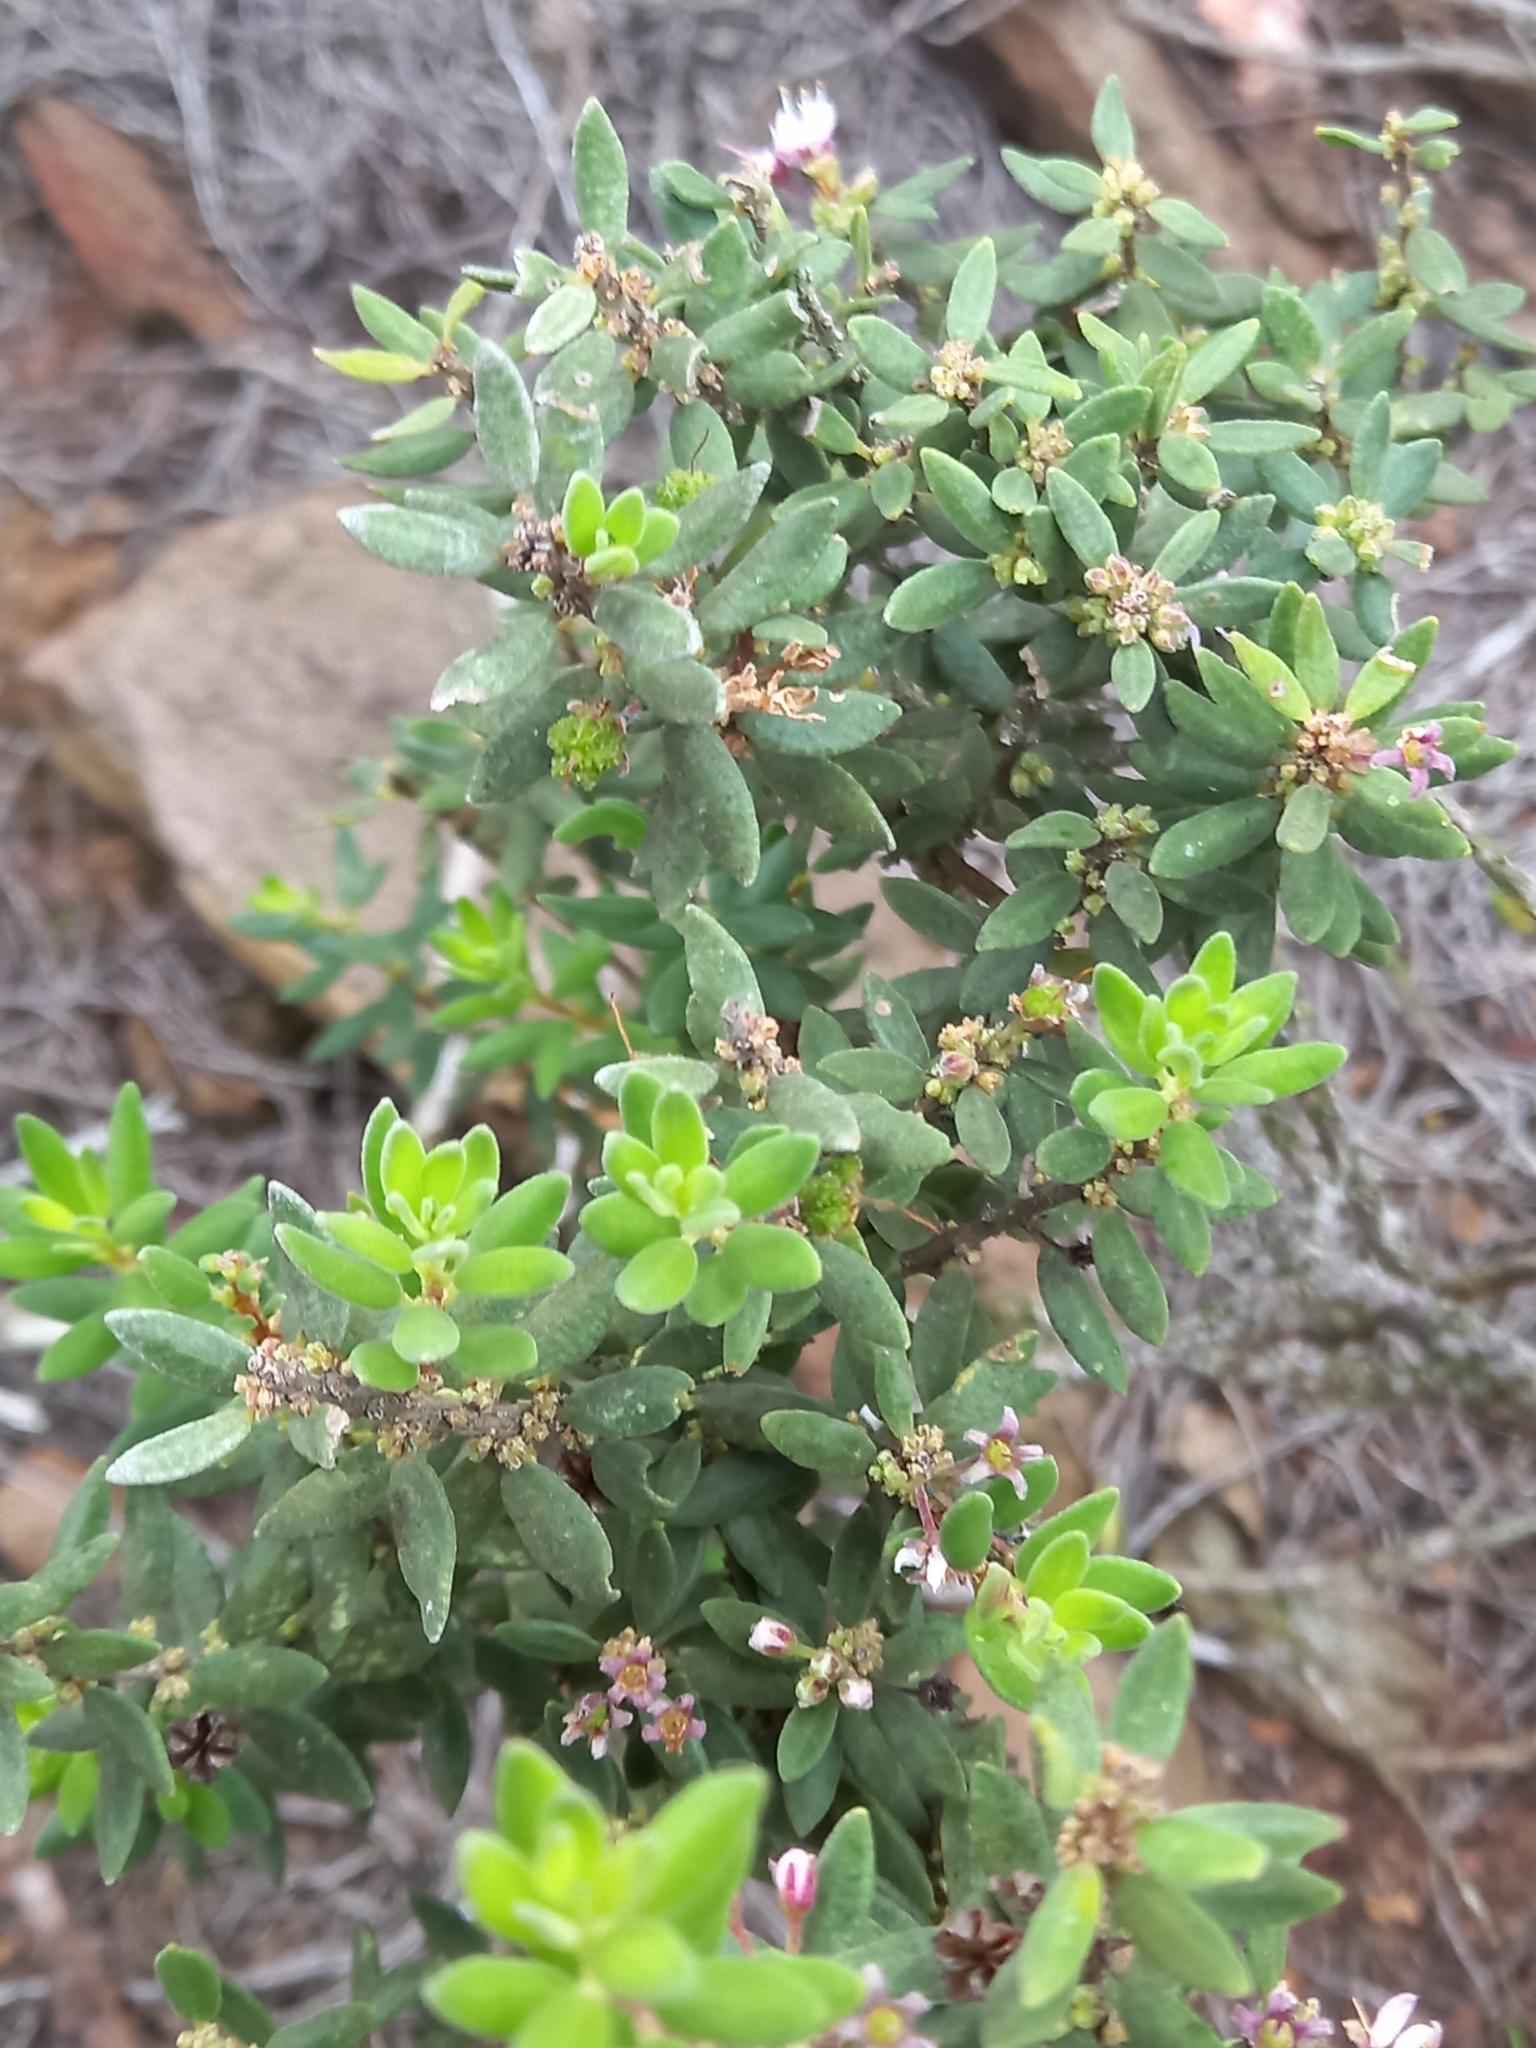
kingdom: Plantae
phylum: Tracheophyta
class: Magnoliopsida
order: Sapindales
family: Rutaceae
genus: Agathosma
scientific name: Agathosma microcarpa
